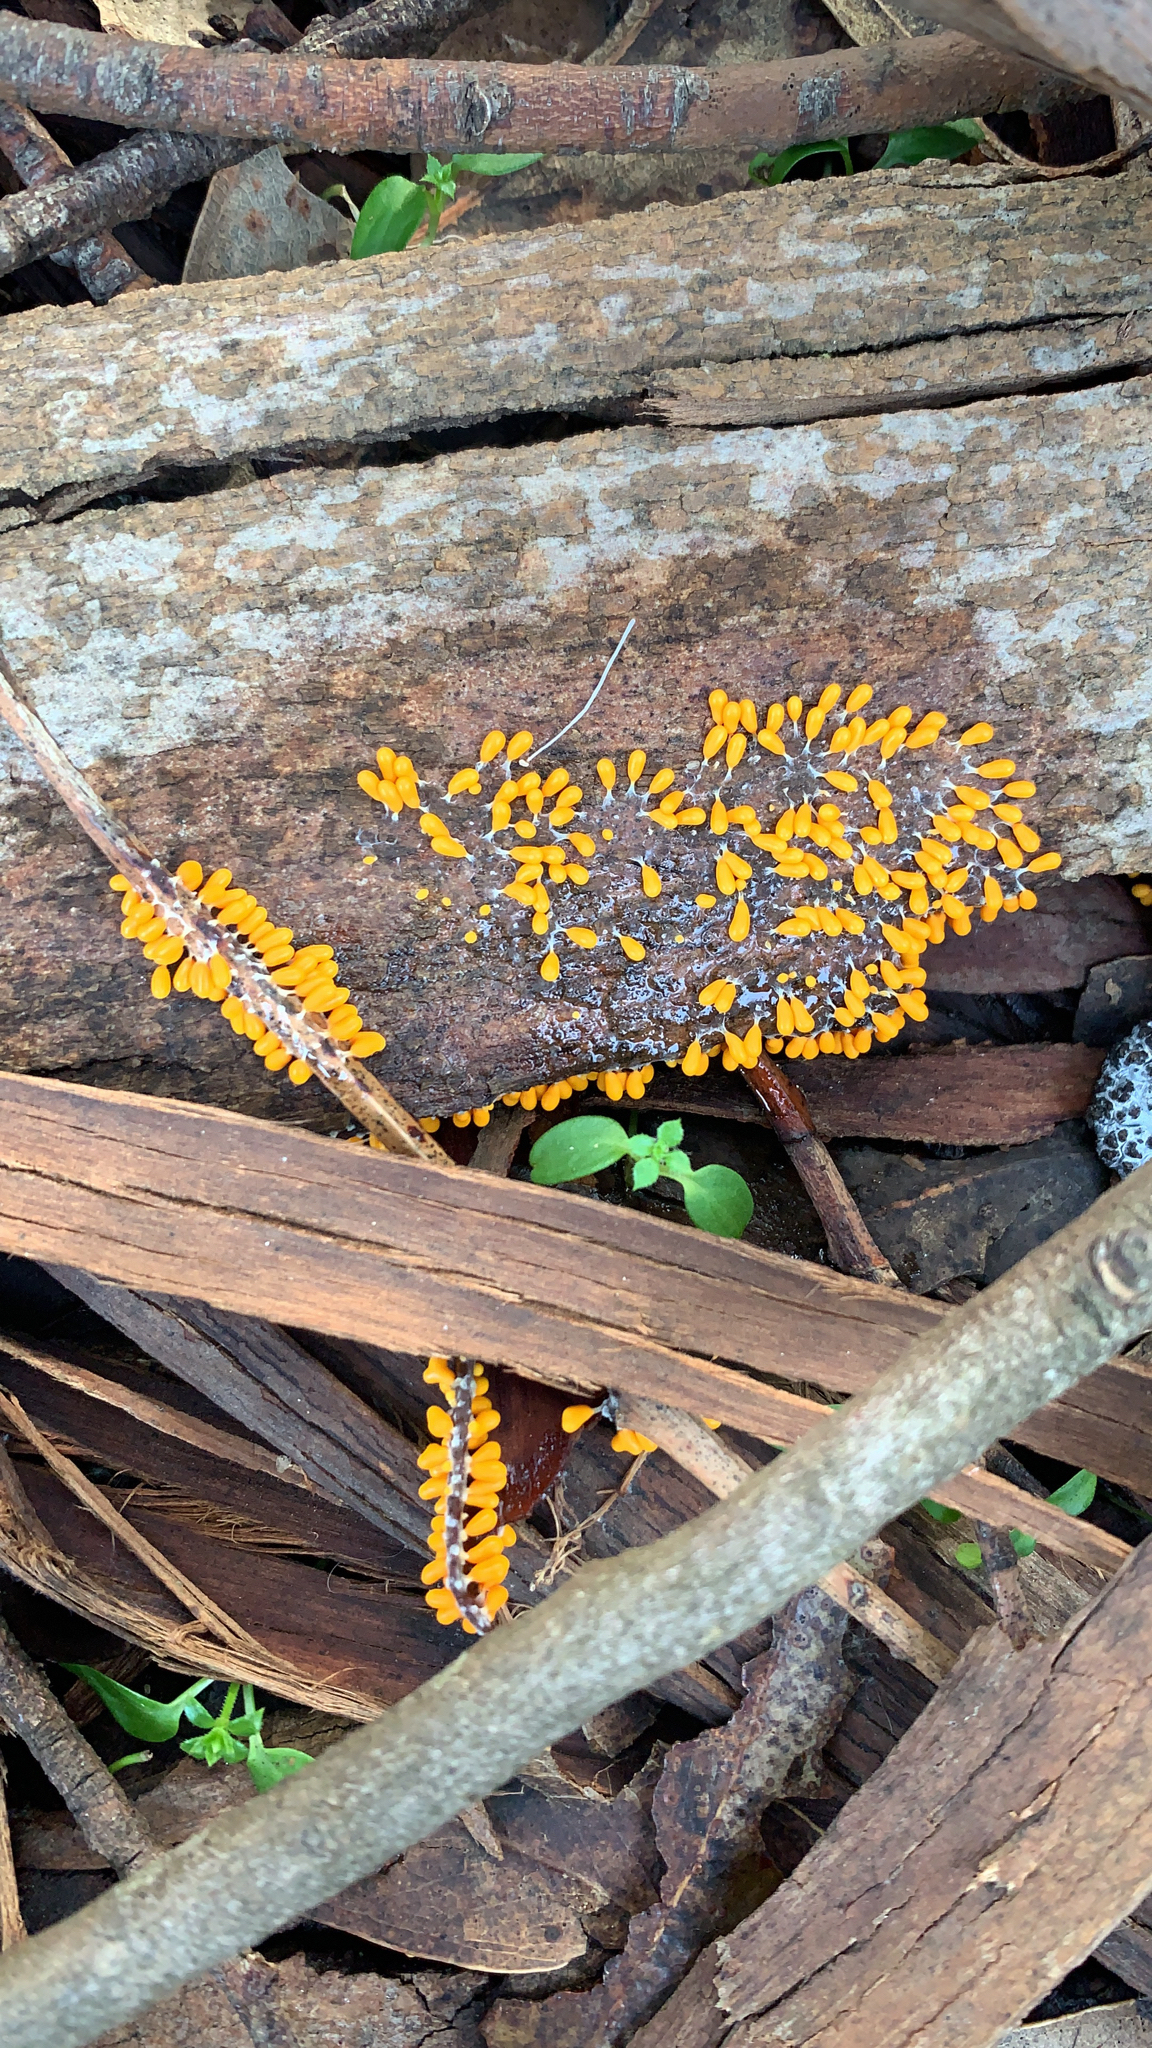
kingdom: Protozoa
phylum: Mycetozoa
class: Myxomycetes
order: Physarales
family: Physaraceae
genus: Leocarpus
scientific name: Leocarpus fragilis
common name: Insect-egg slime
